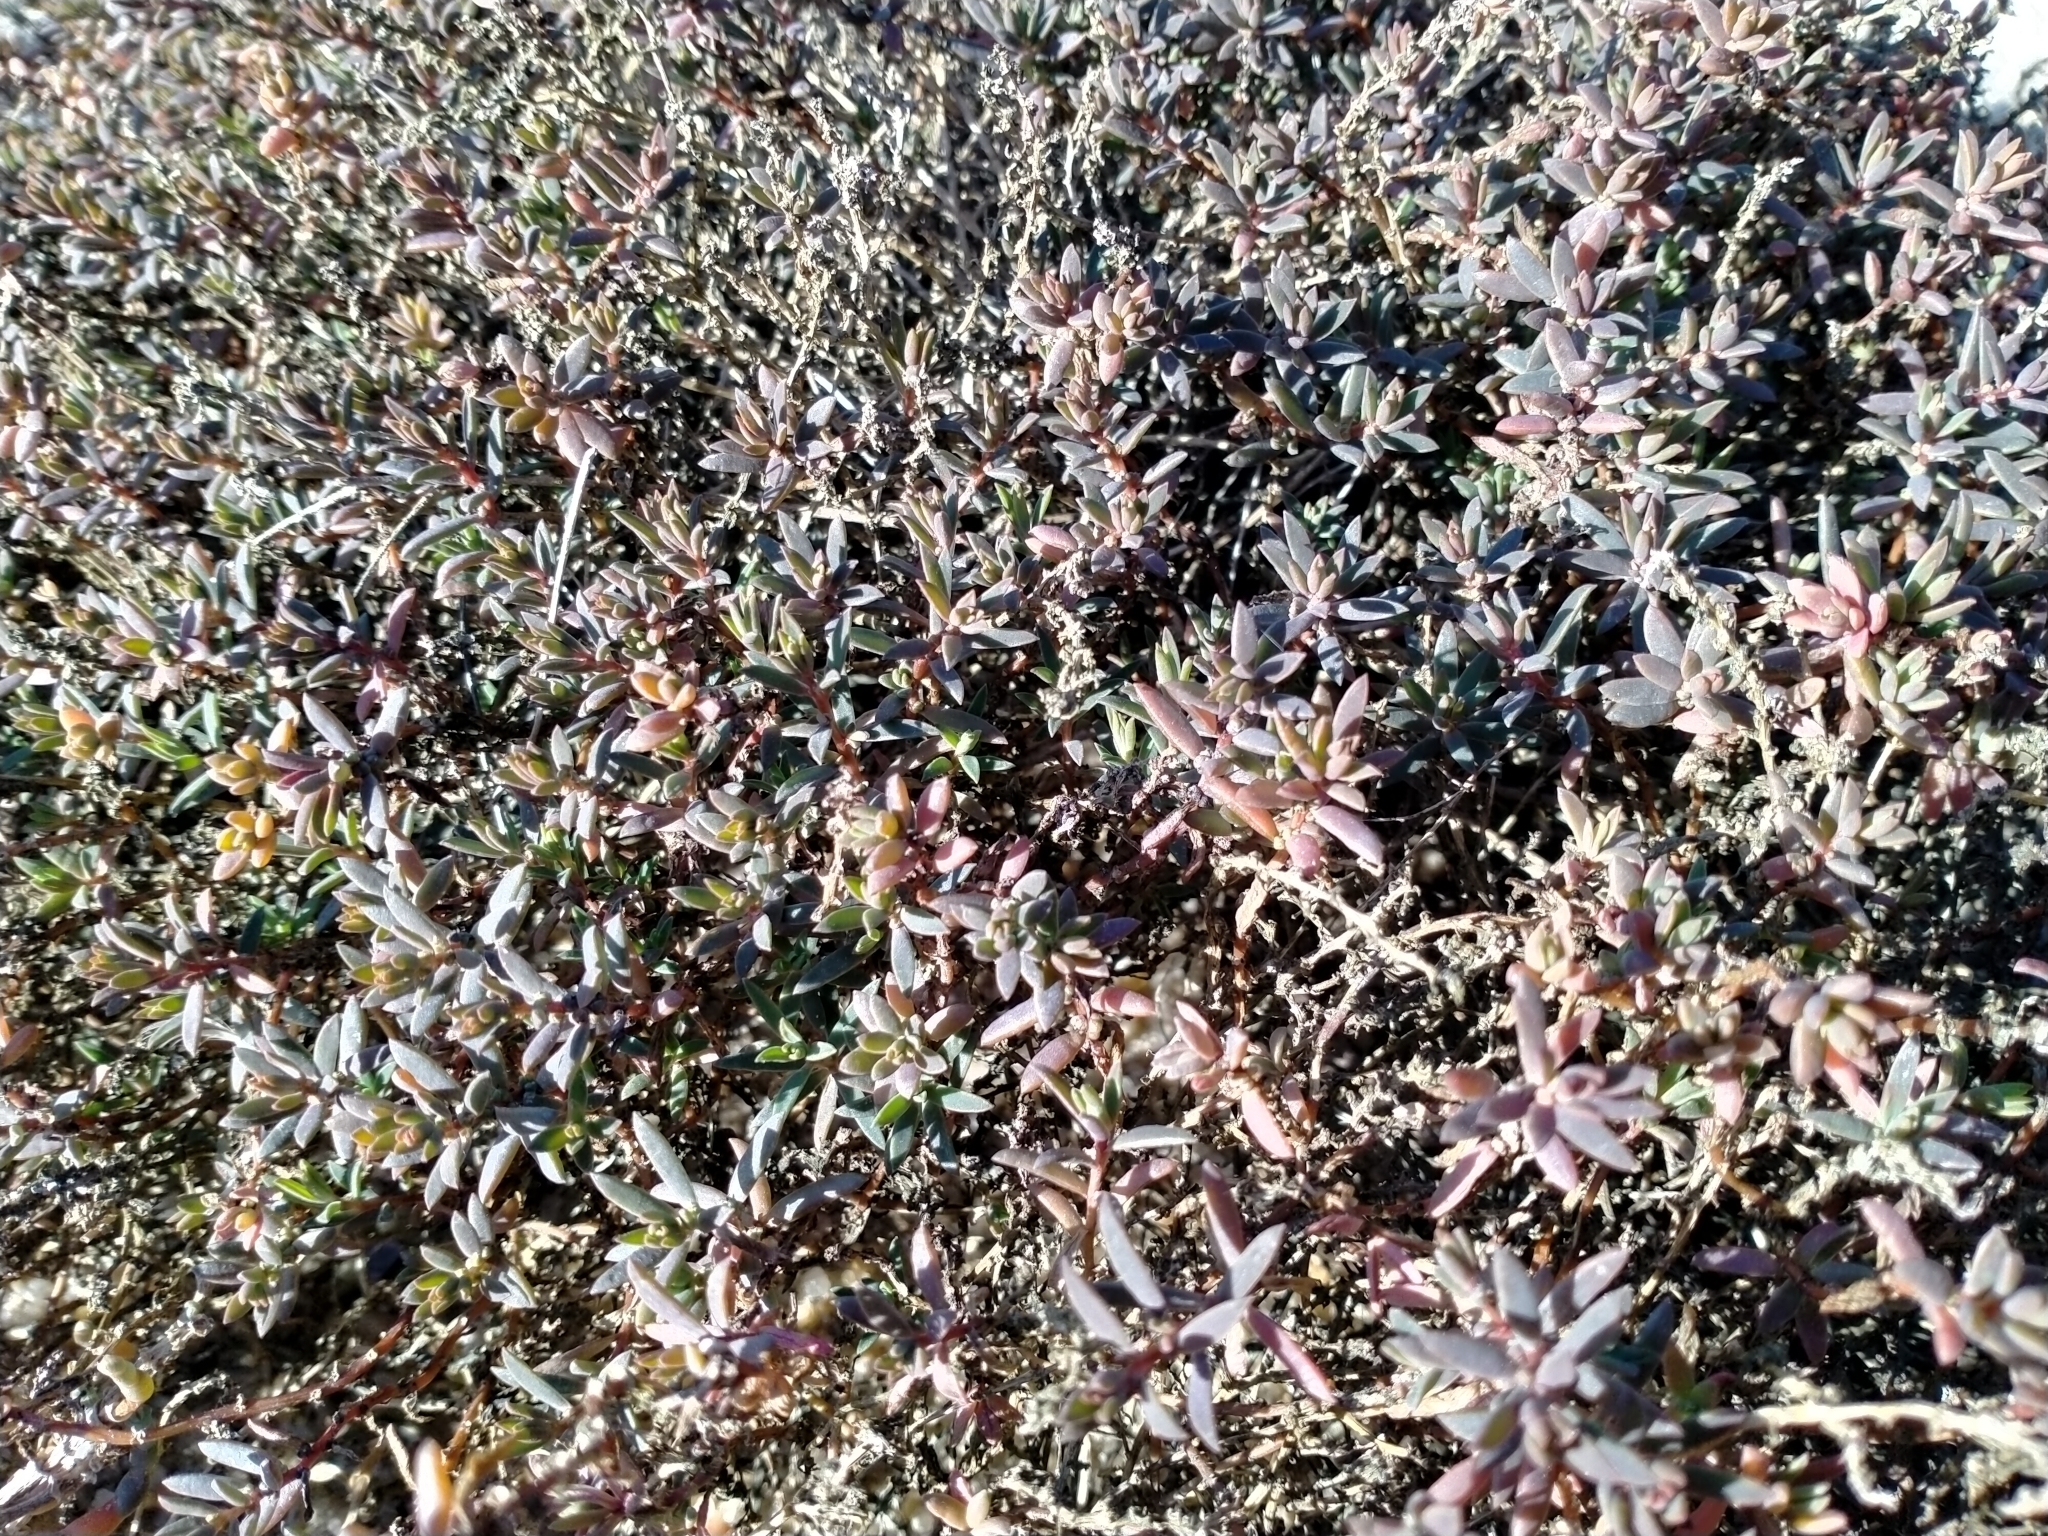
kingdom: Plantae
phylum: Tracheophyta
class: Magnoliopsida
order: Caryophyllales
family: Amaranthaceae
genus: Suaeda
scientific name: Suaeda novae-zelandiae
